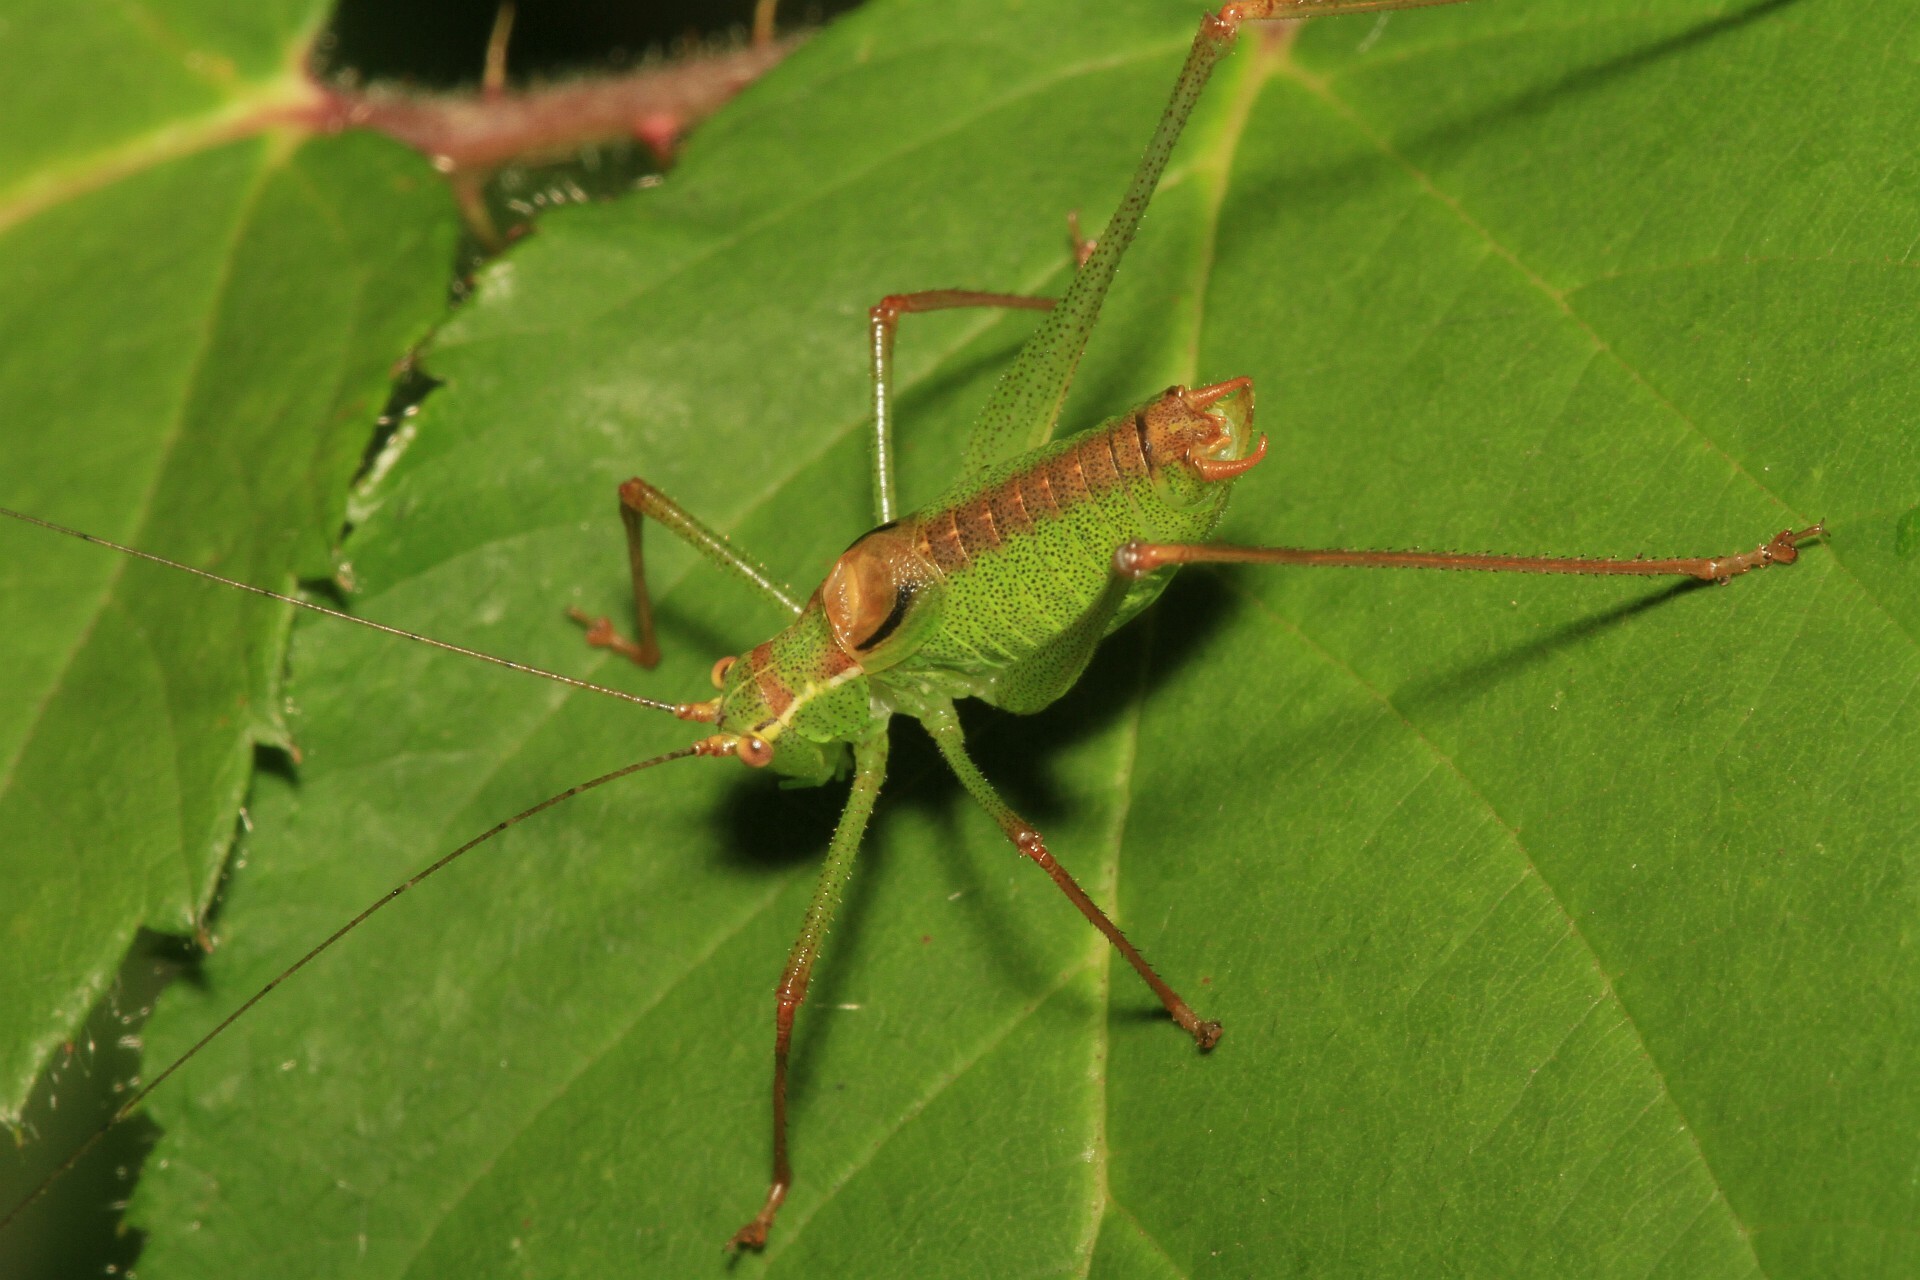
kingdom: Animalia
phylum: Arthropoda
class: Insecta
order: Orthoptera
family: Tettigoniidae
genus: Leptophyes
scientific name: Leptophyes punctatissima
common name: Speckled bush-cricket
